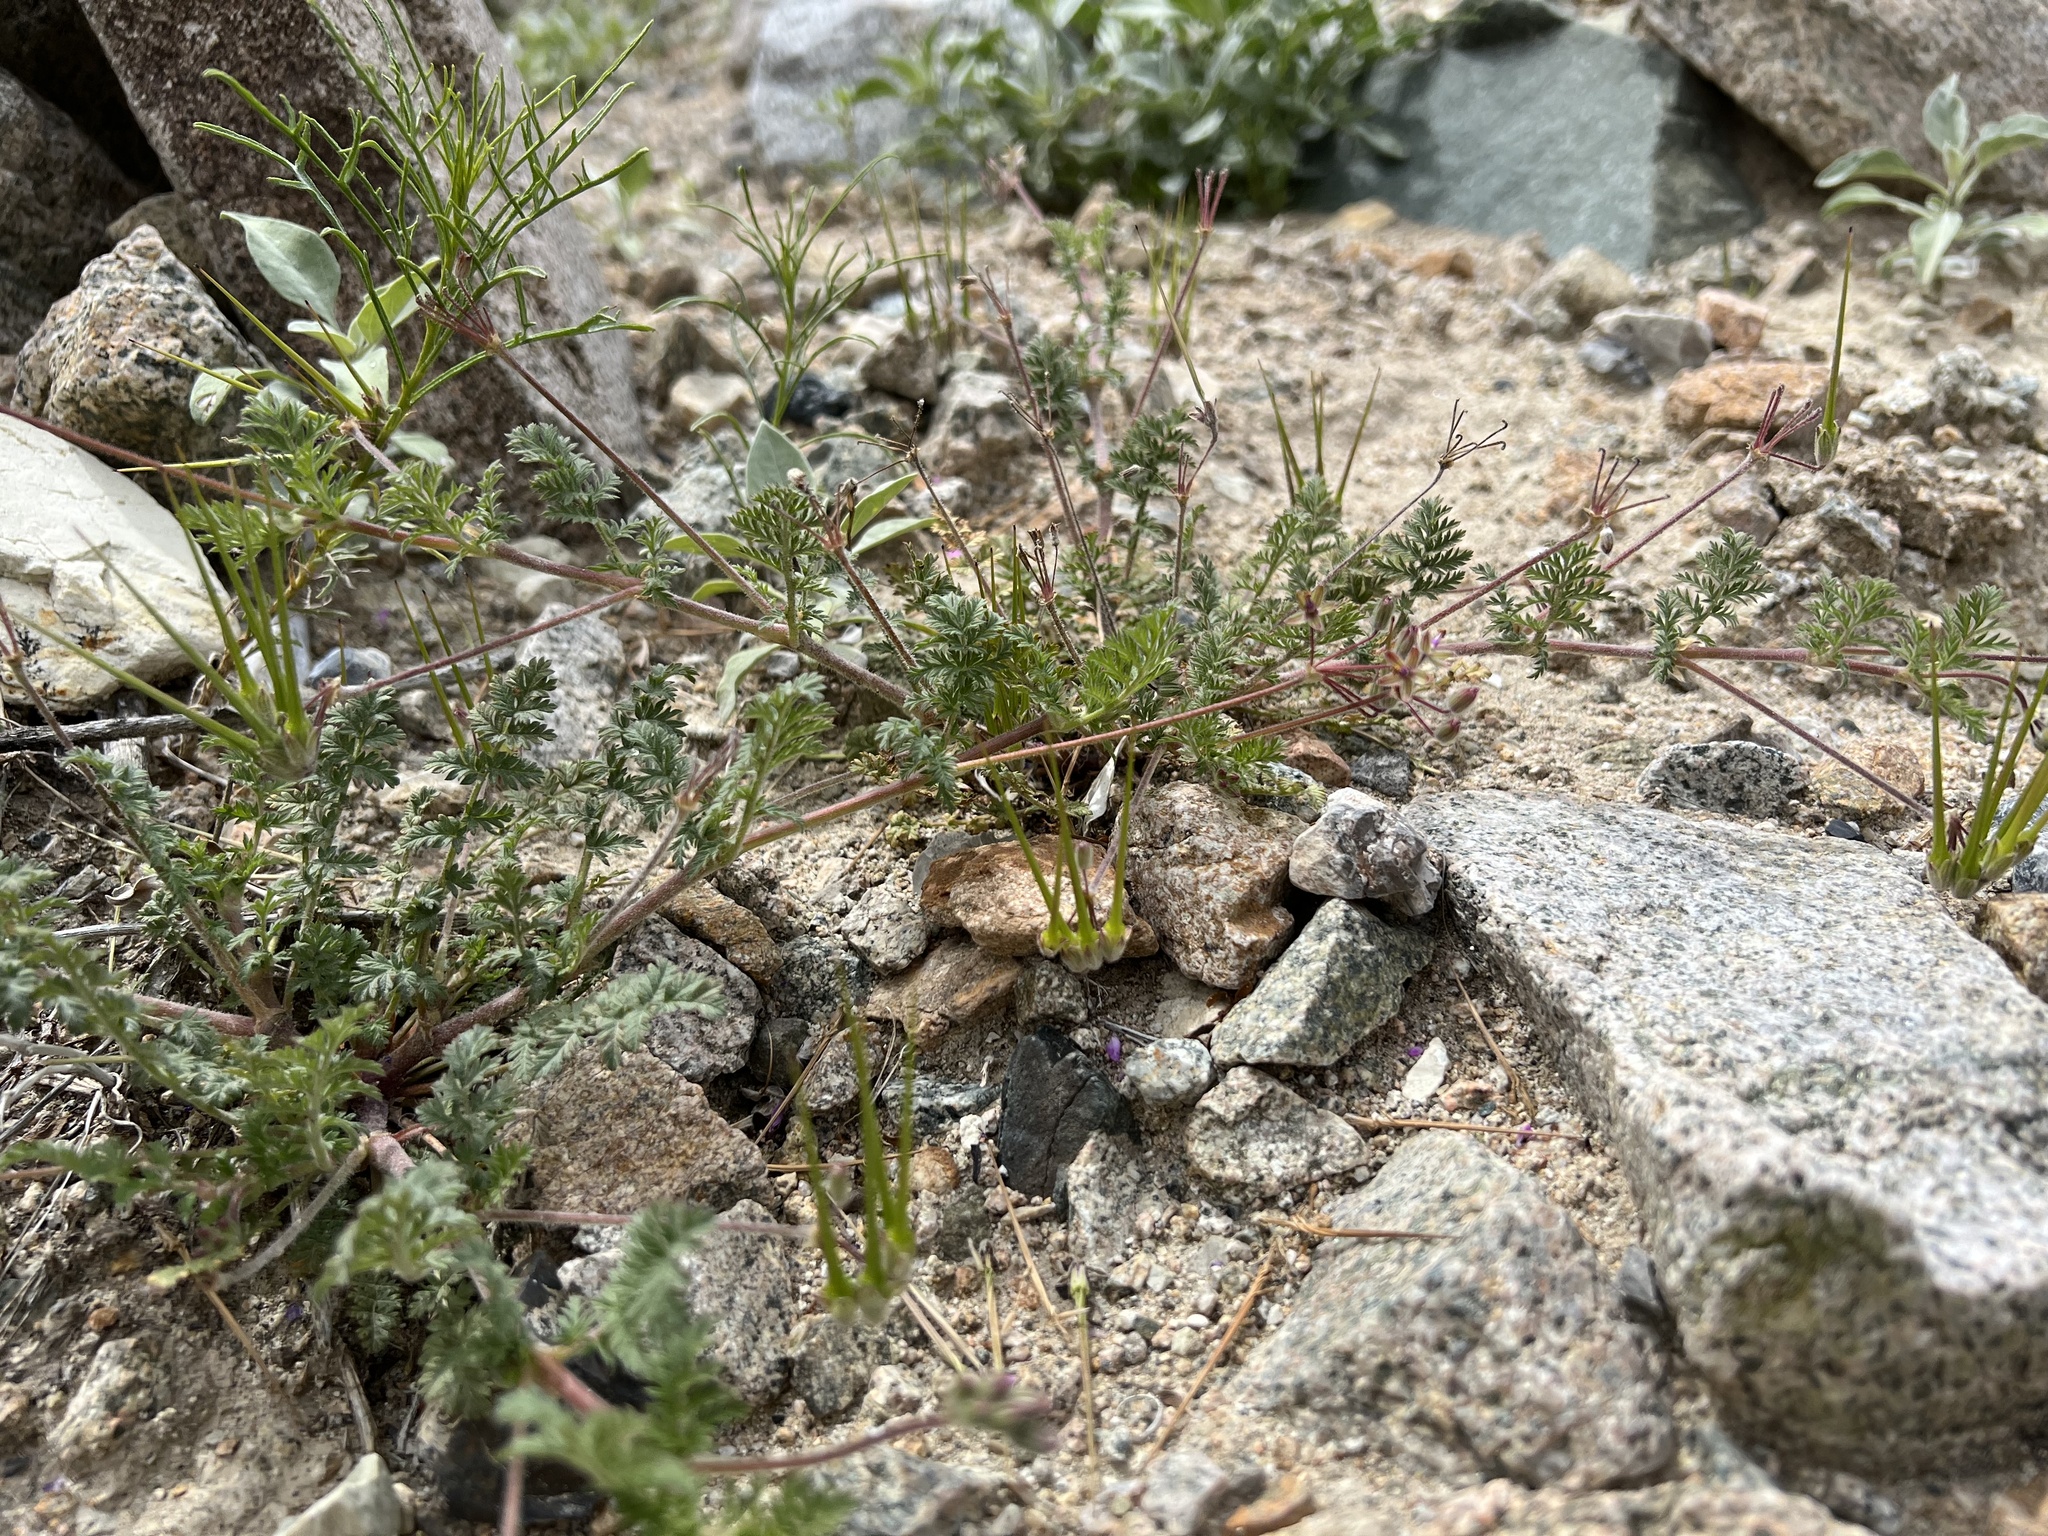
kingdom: Plantae
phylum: Tracheophyta
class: Magnoliopsida
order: Geraniales
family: Geraniaceae
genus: Erodium
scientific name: Erodium cicutarium
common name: Common stork's-bill
